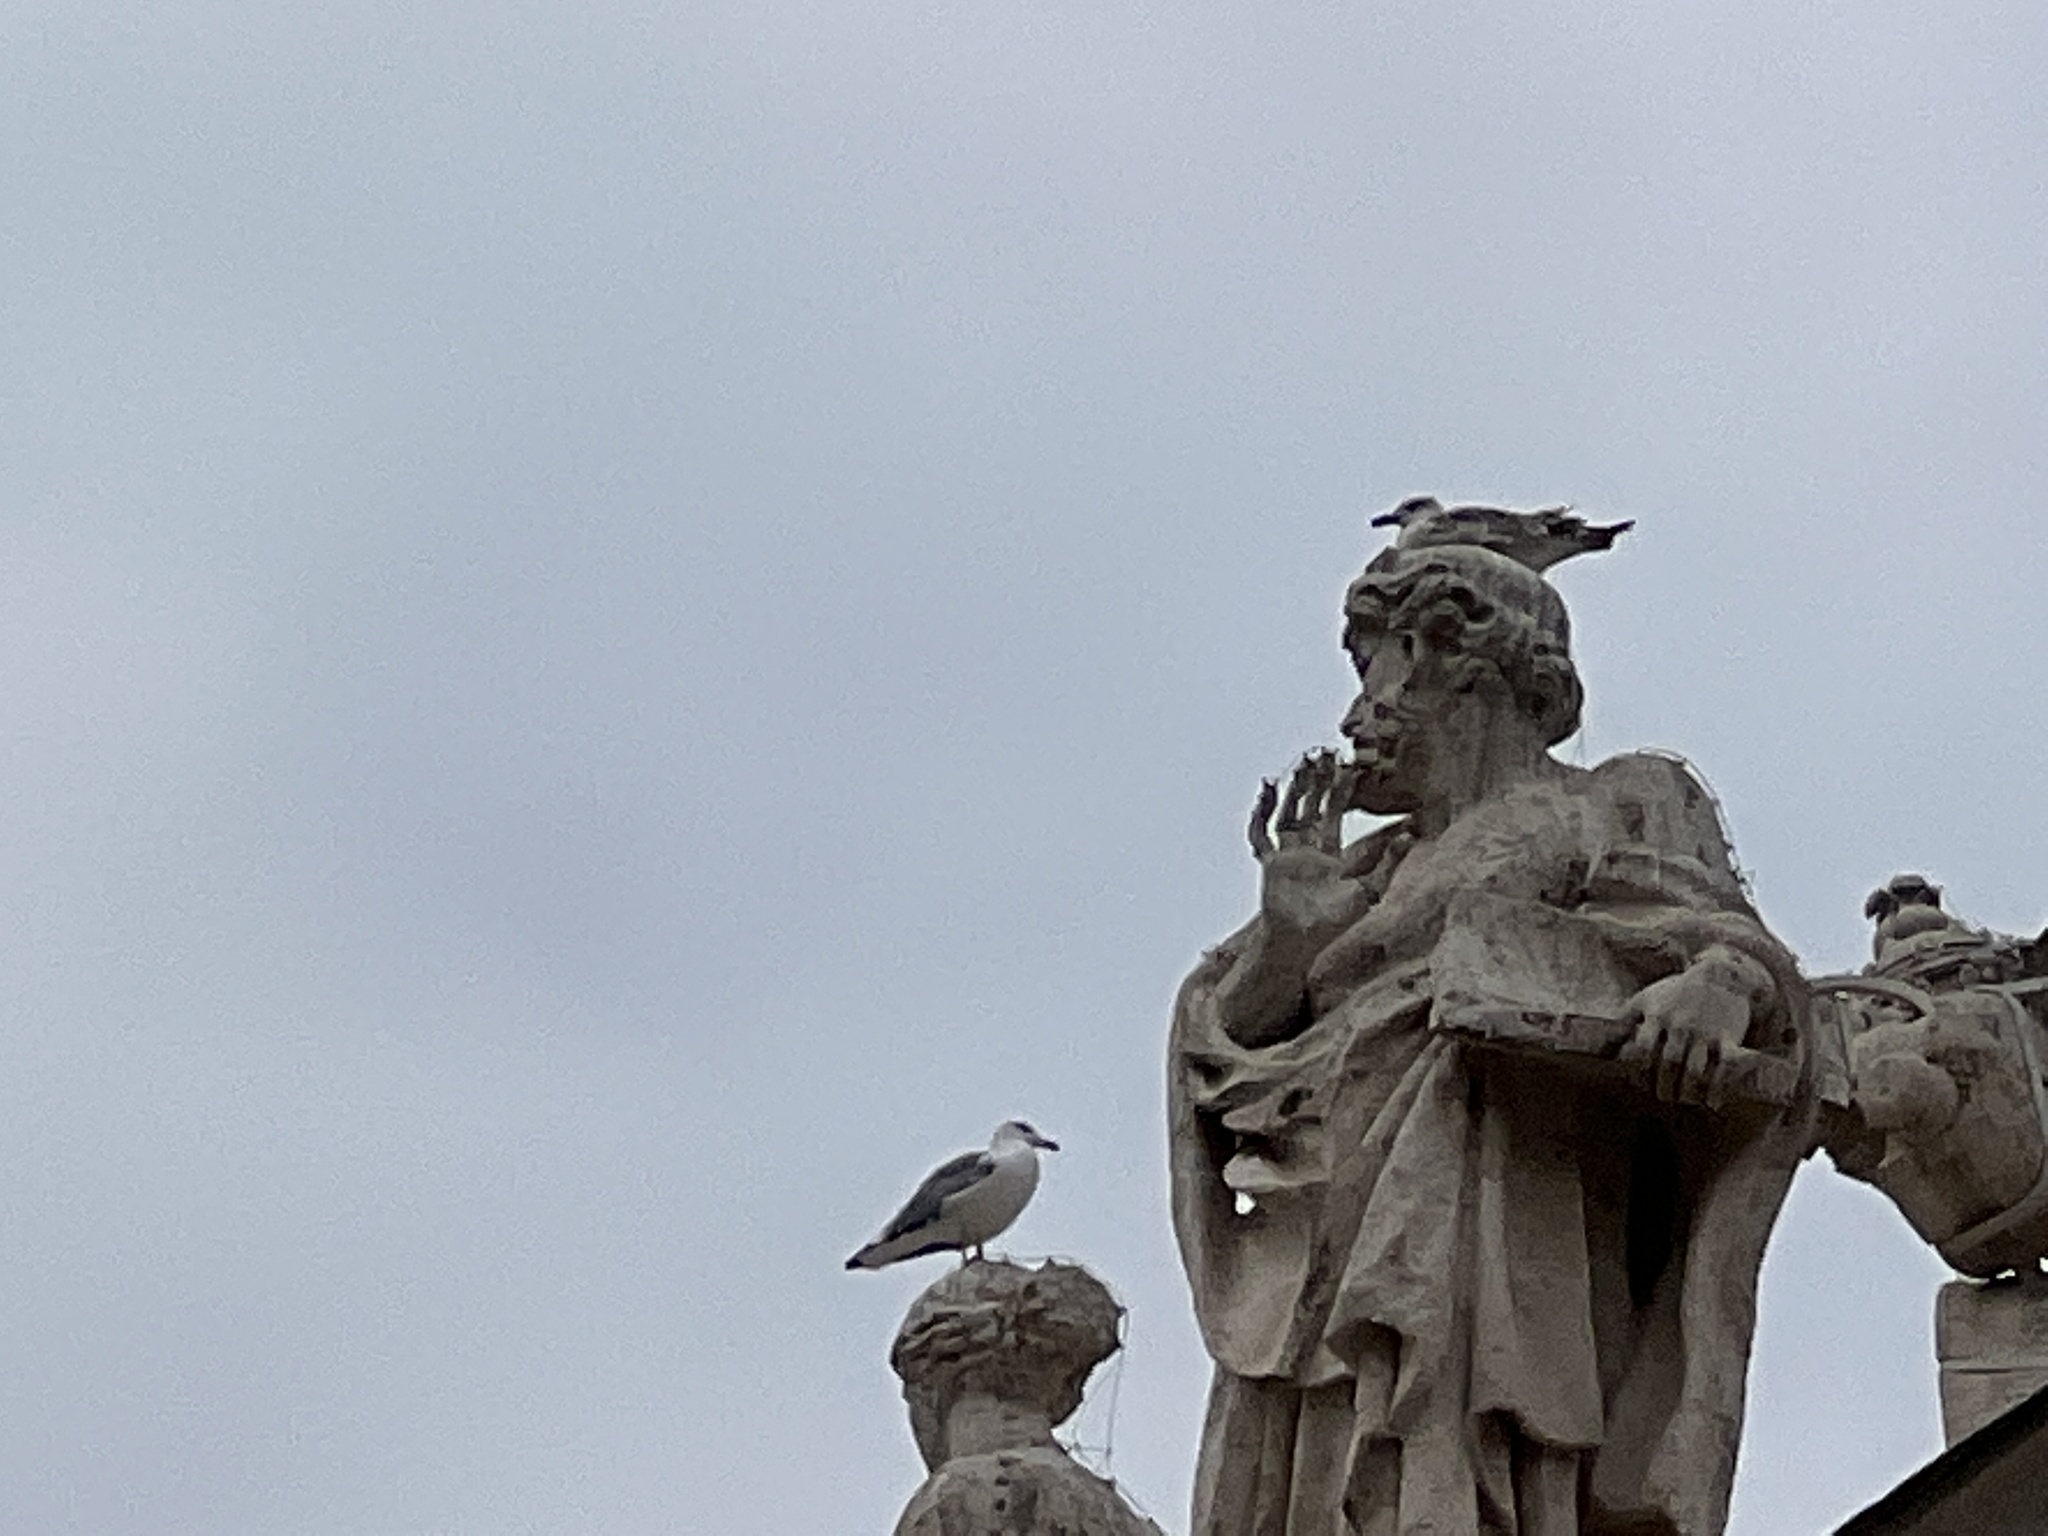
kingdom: Animalia
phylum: Chordata
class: Aves
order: Charadriiformes
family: Laridae
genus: Larus
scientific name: Larus michahellis
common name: Yellow-legged gull
